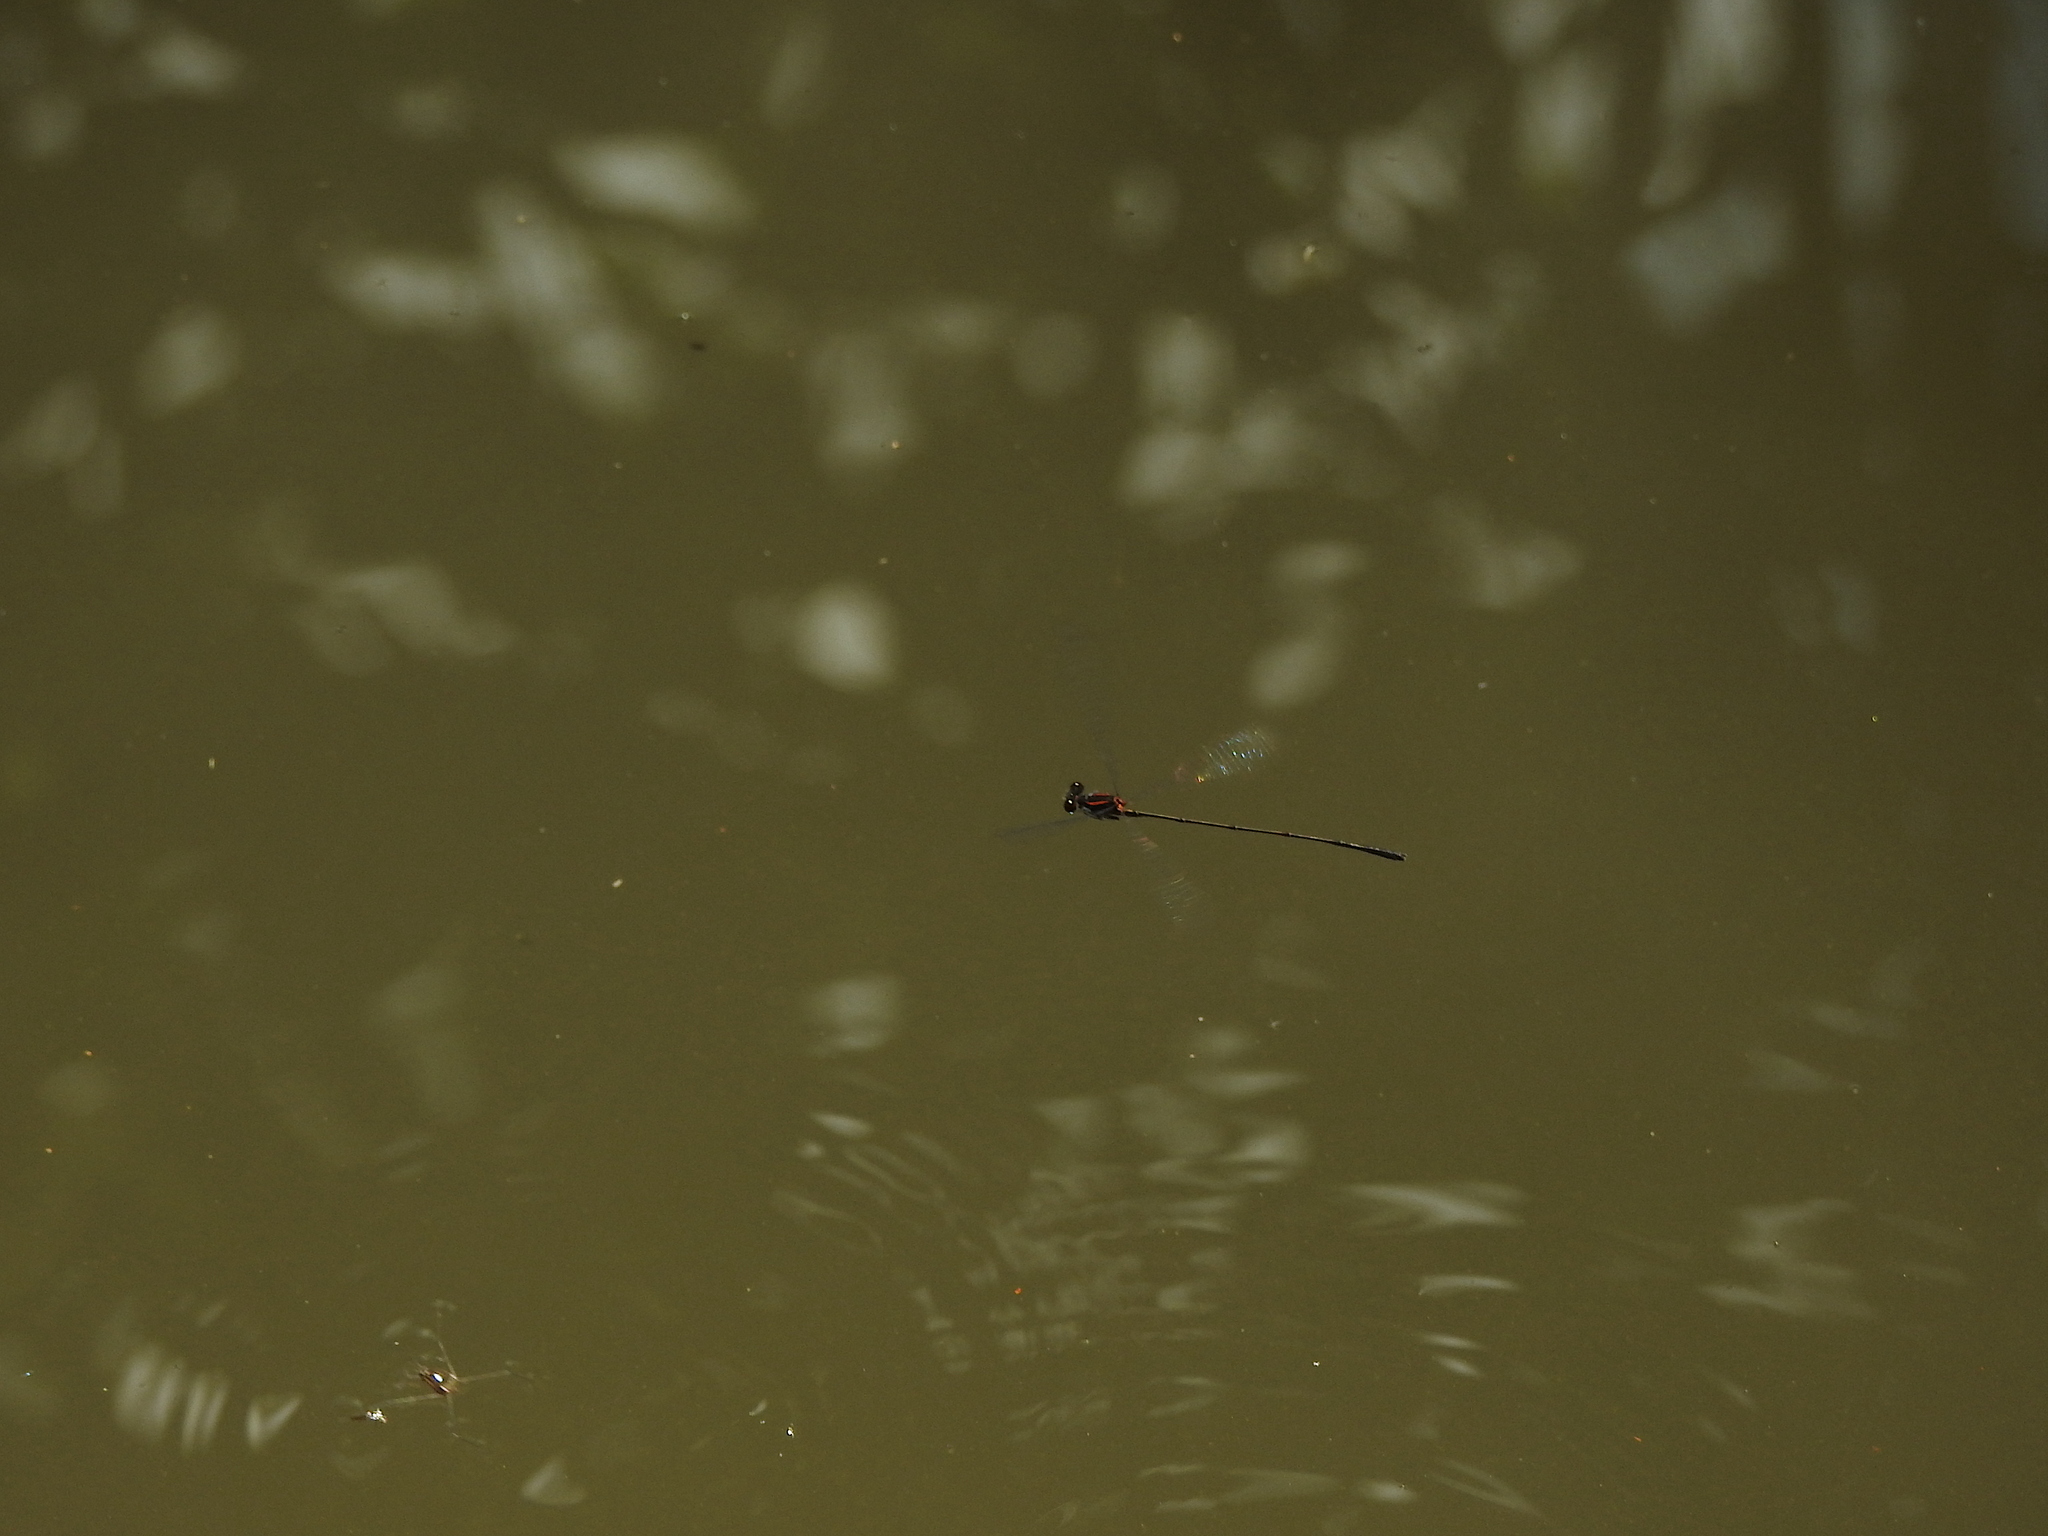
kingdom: Animalia
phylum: Arthropoda
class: Insecta
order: Odonata
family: Platycnemididae
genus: Prodasineura
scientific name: Prodasineura verticalis
